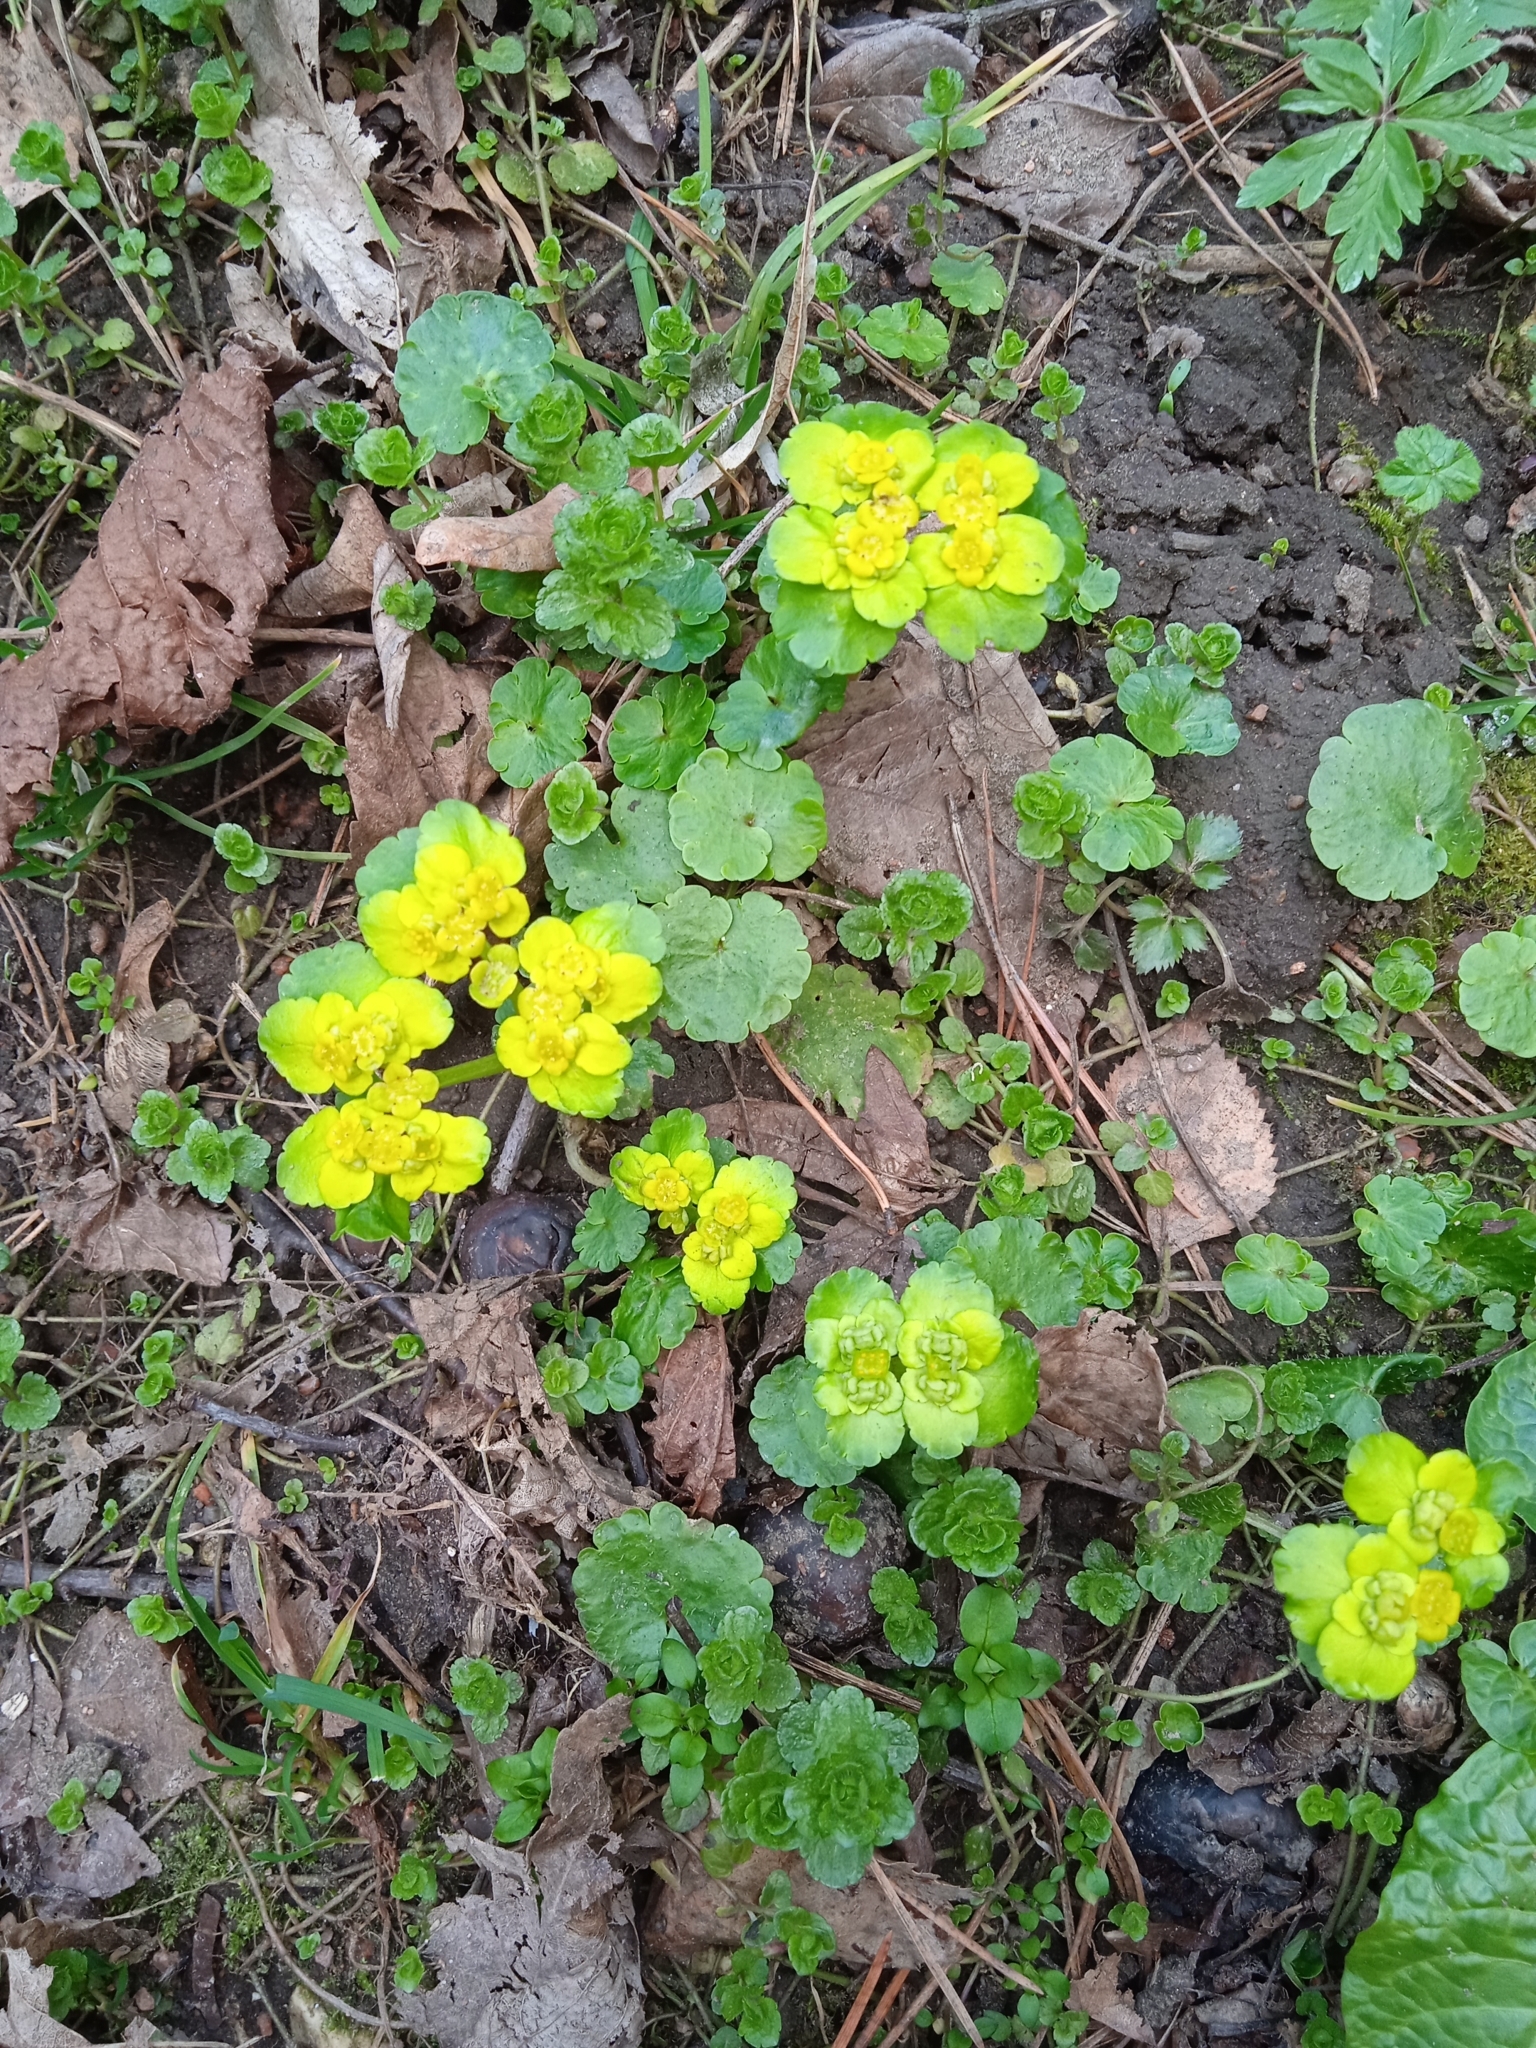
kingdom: Plantae
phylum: Tracheophyta
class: Magnoliopsida
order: Saxifragales
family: Saxifragaceae
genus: Chrysosplenium
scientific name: Chrysosplenium alternifolium
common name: Alternate-leaved golden-saxifrage
